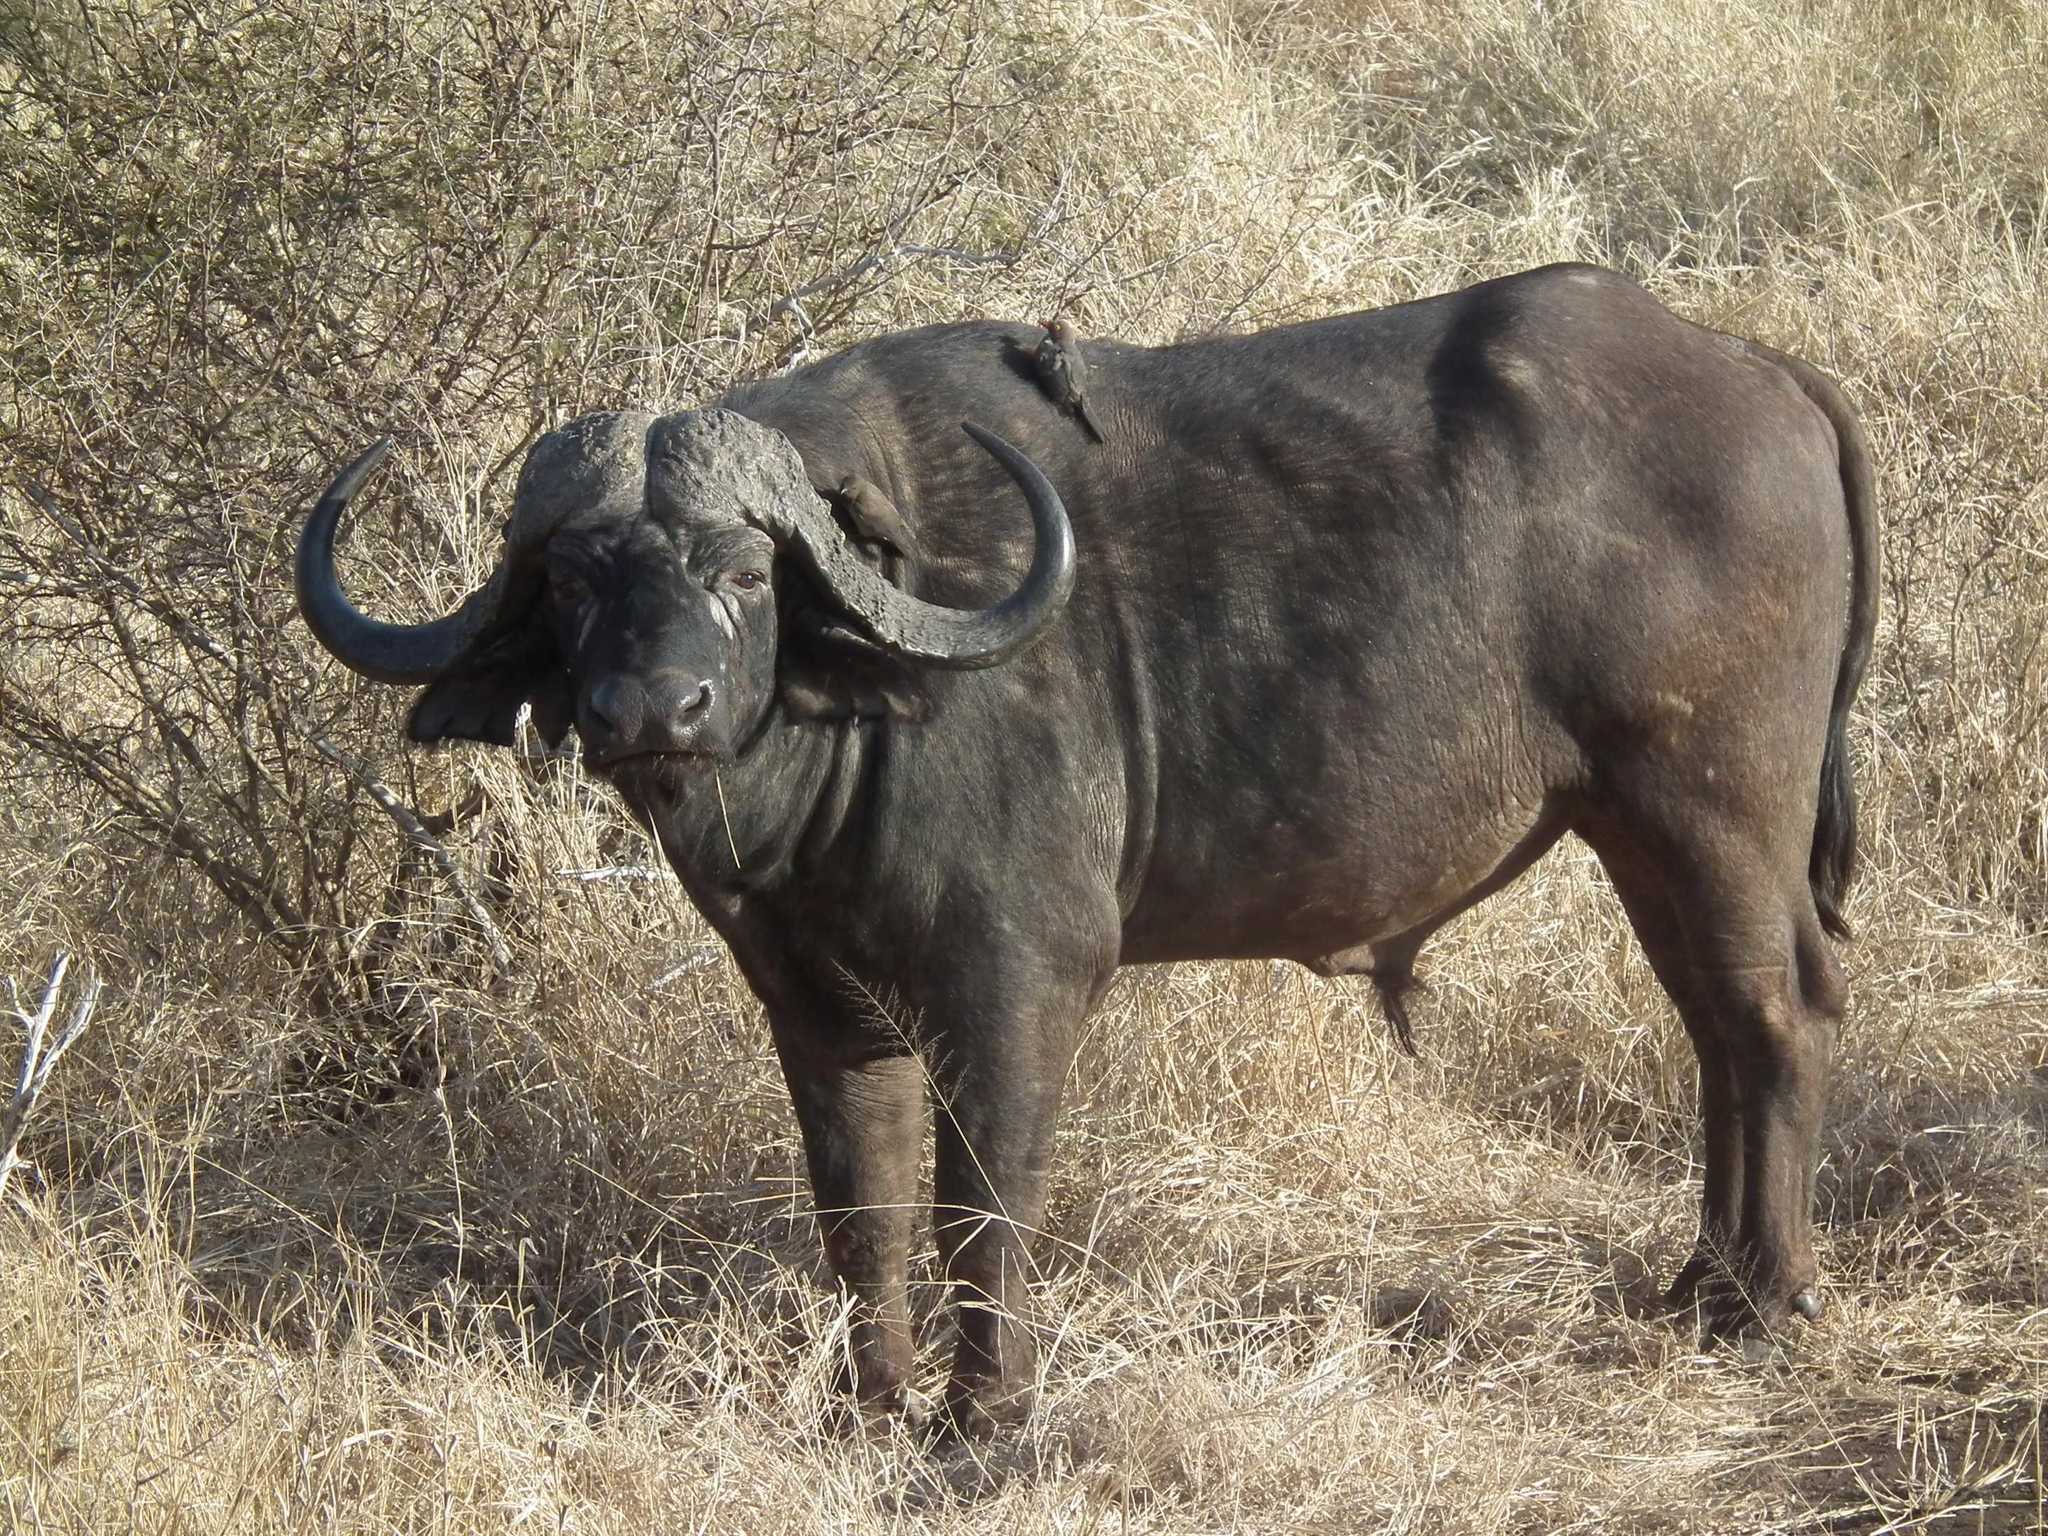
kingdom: Animalia
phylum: Chordata
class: Mammalia
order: Artiodactyla
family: Bovidae
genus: Syncerus
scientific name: Syncerus caffer
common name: African buffalo
